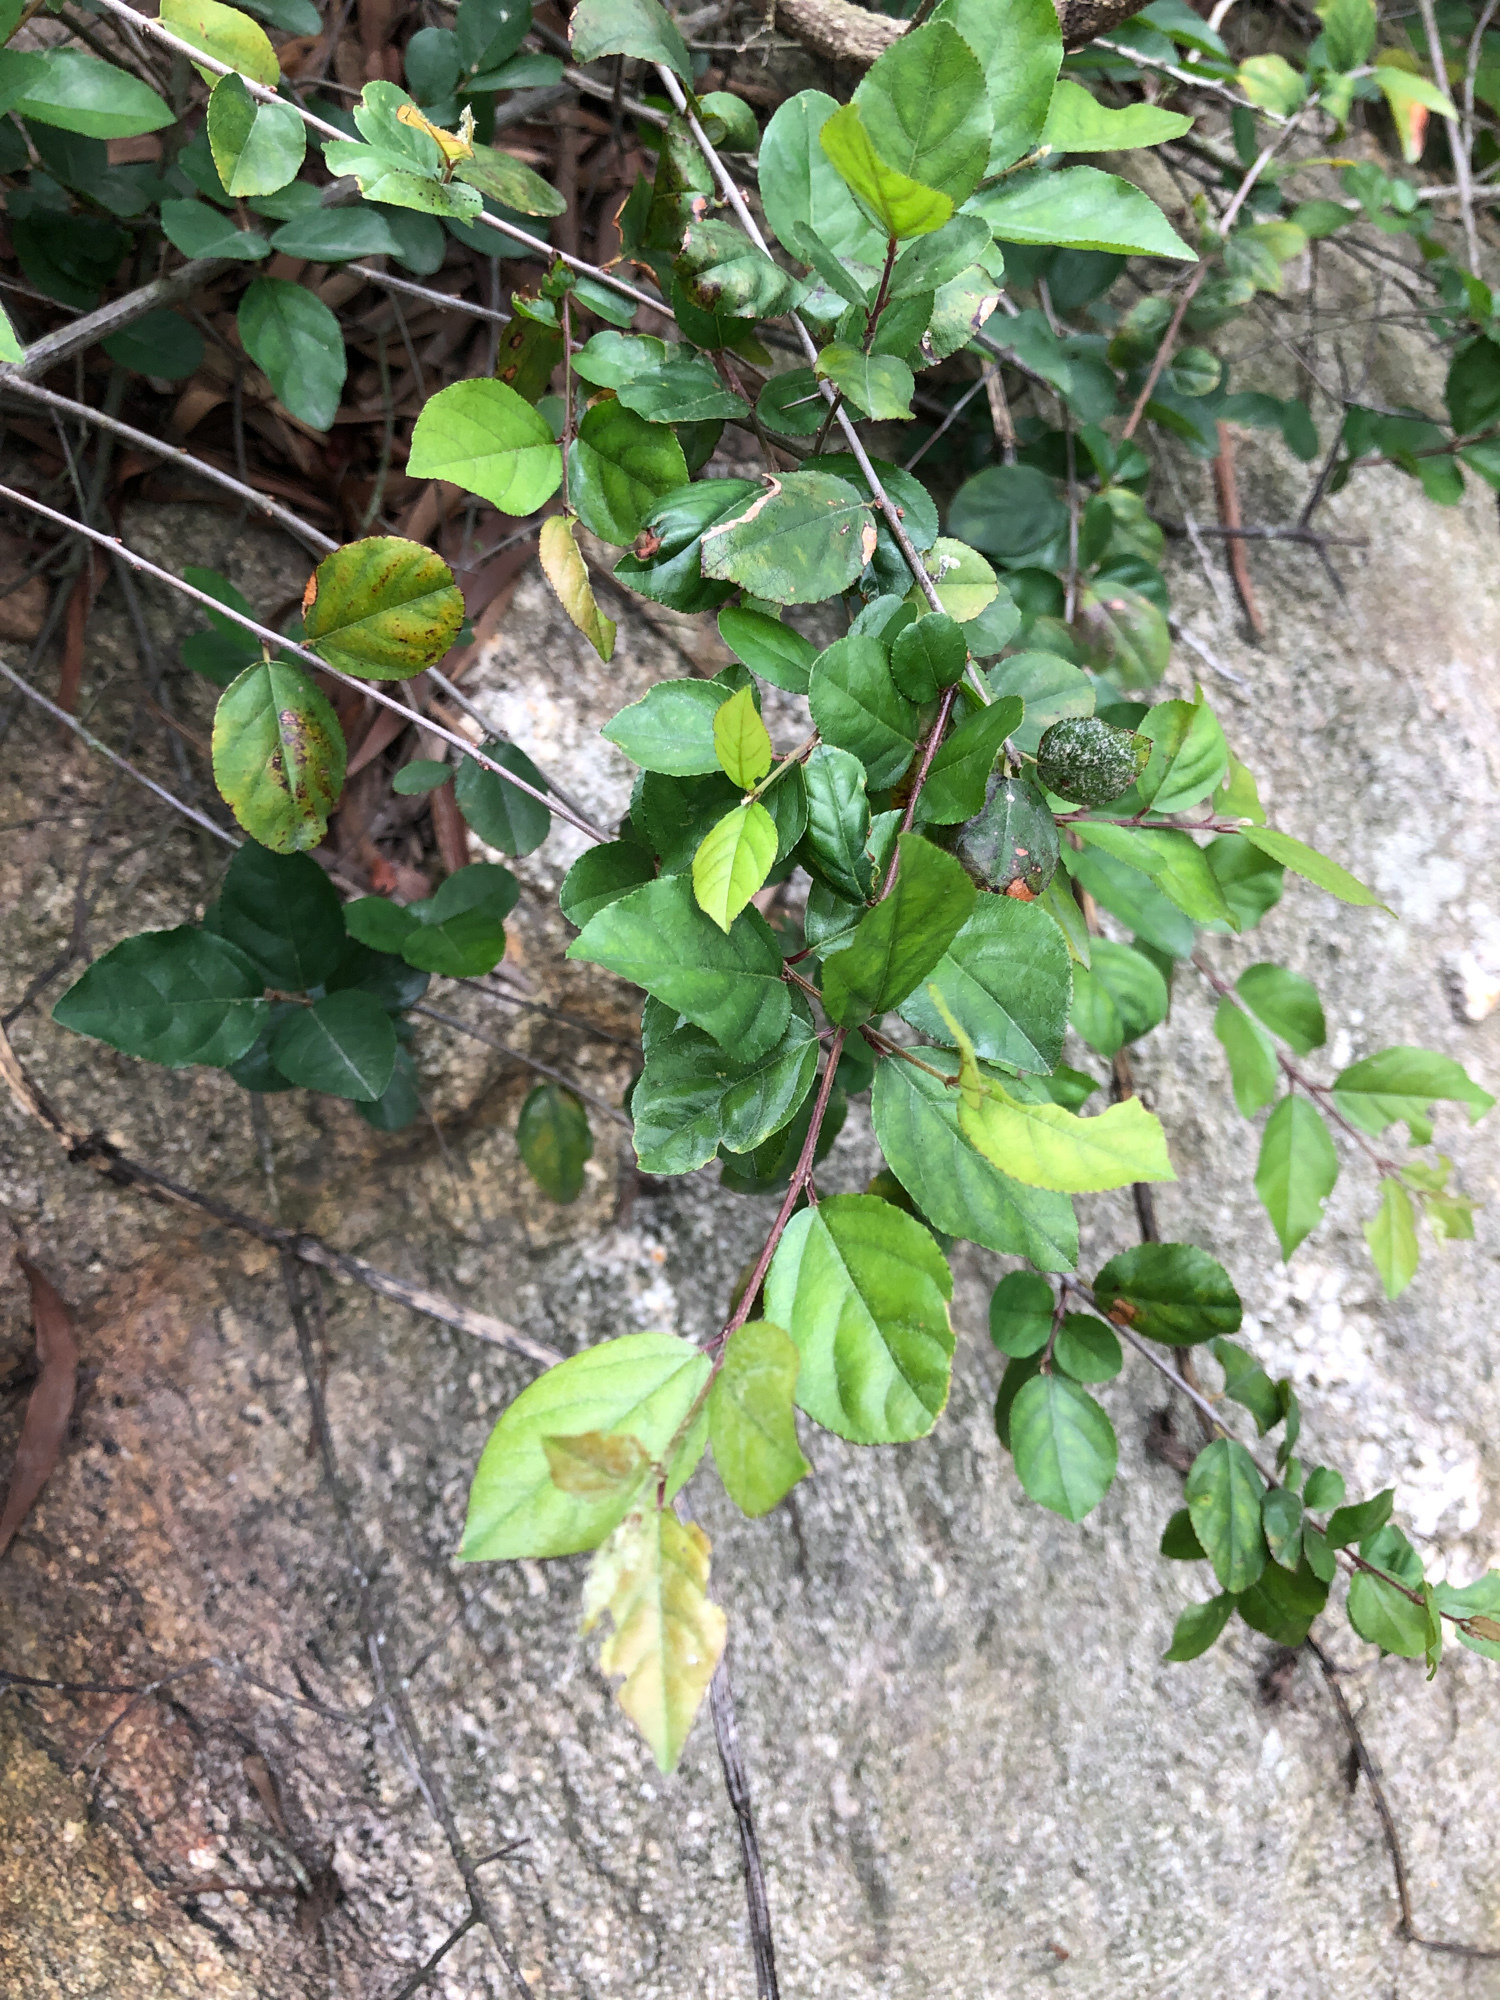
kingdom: Plantae
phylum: Tracheophyta
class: Magnoliopsida
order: Rosales
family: Rhamnaceae
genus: Sageretia
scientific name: Sageretia thea
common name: Pauper's-tea
